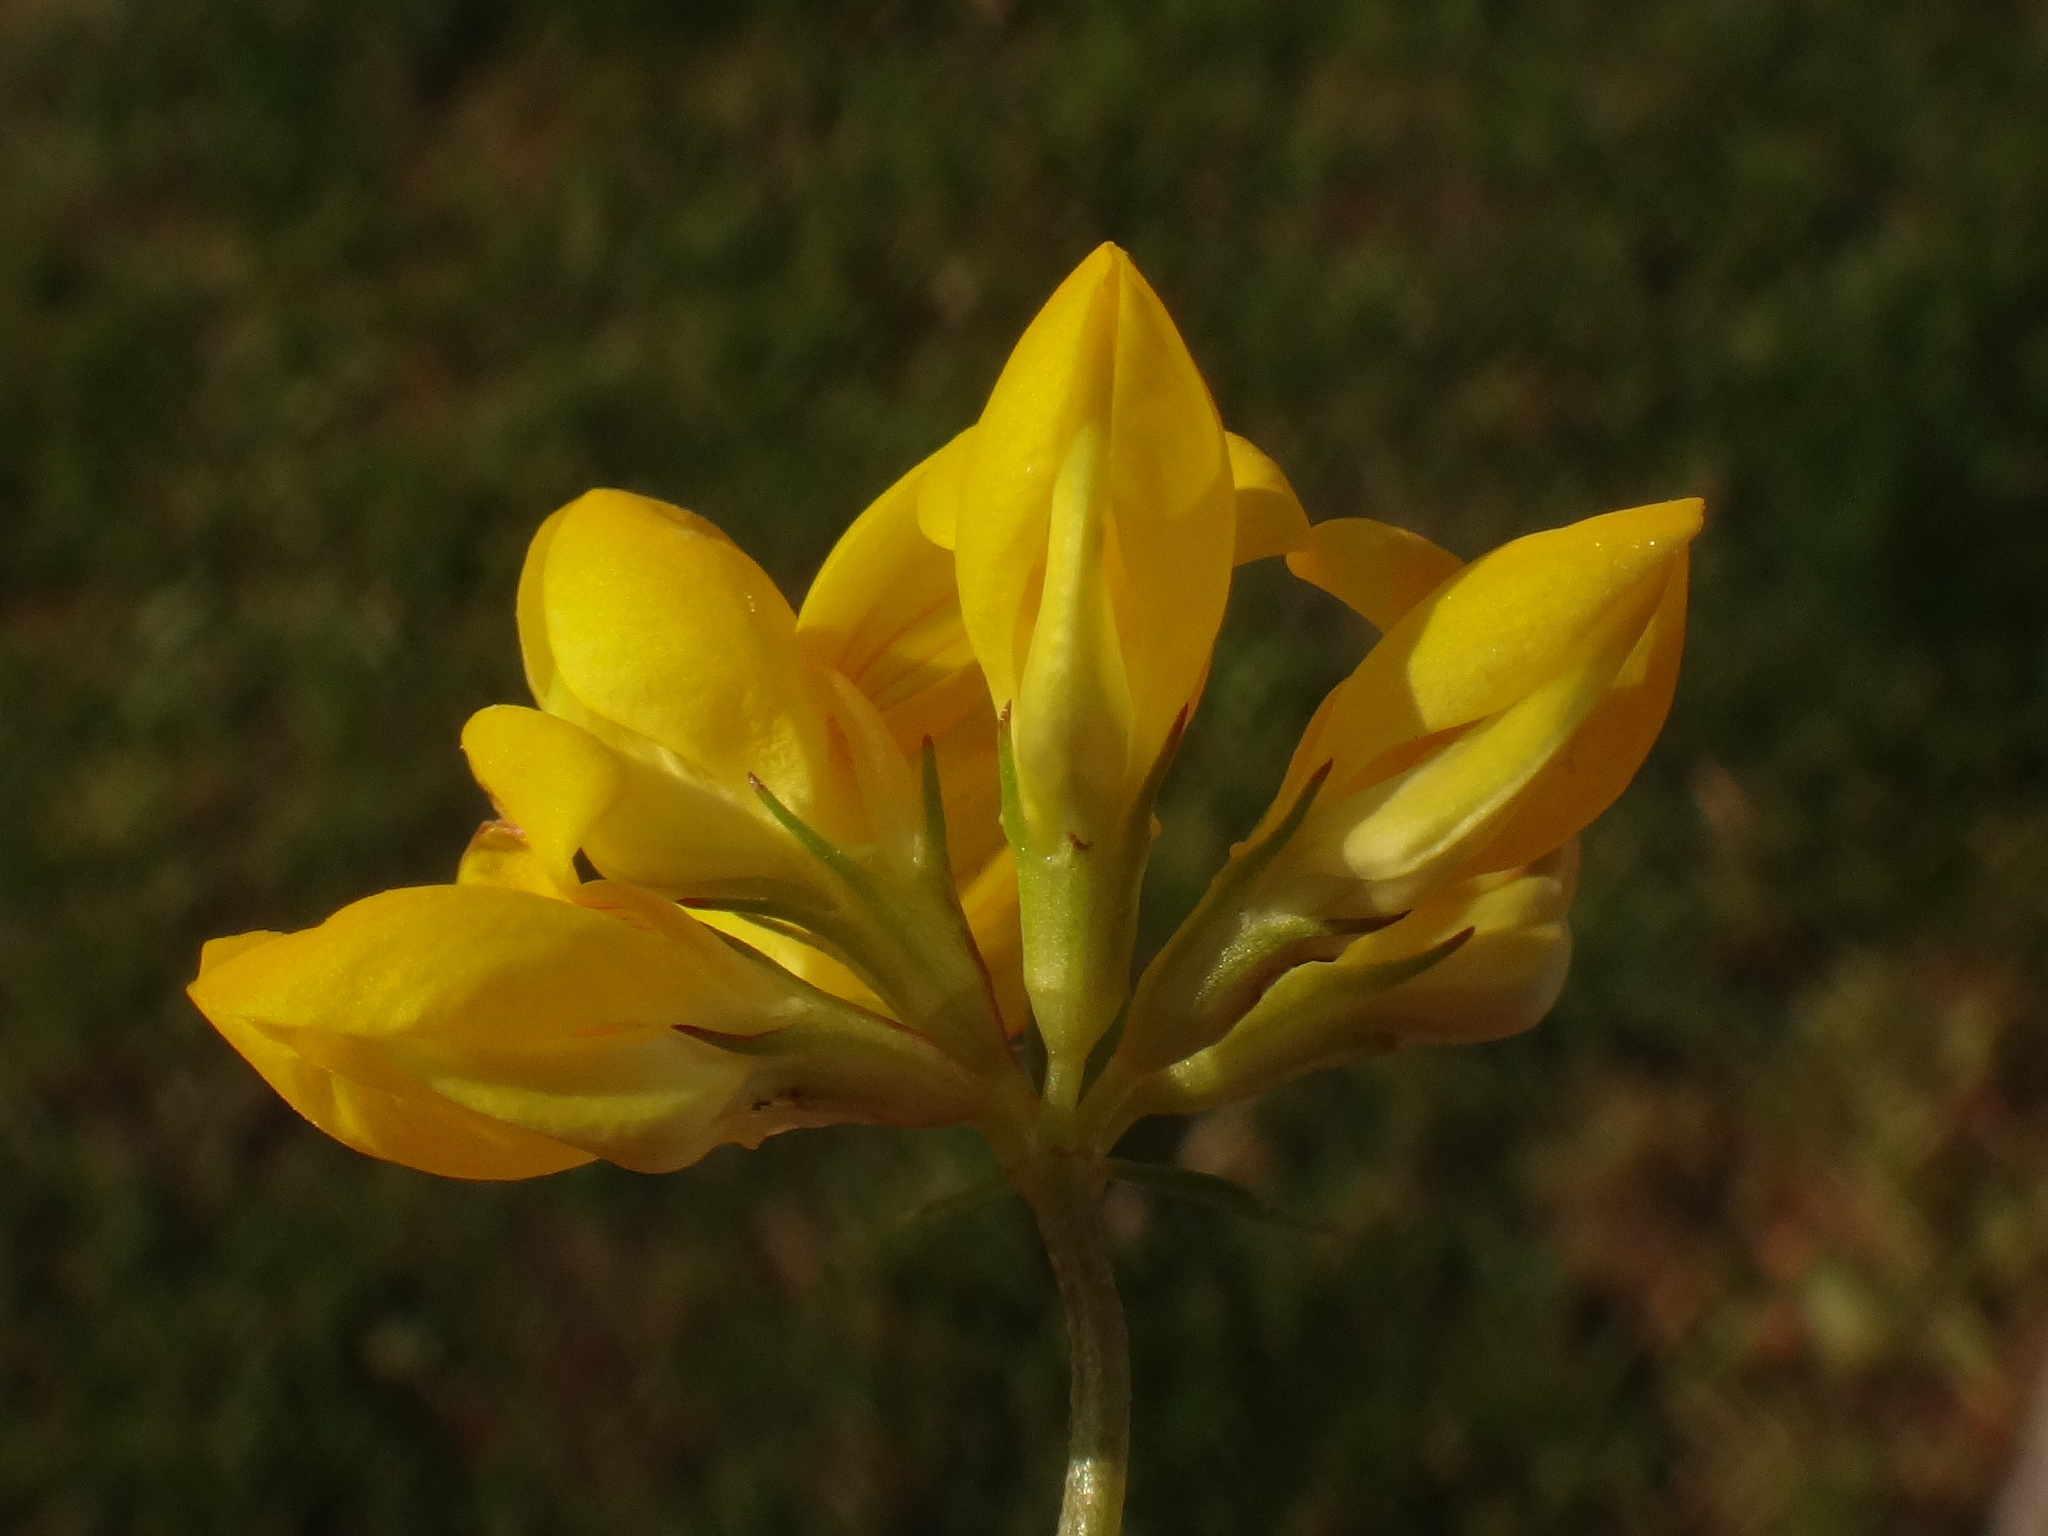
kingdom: Plantae
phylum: Tracheophyta
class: Magnoliopsida
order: Fabales
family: Fabaceae
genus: Lotus
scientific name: Lotus tenuis
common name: Narrow-leaved bird's-foot-trefoil
